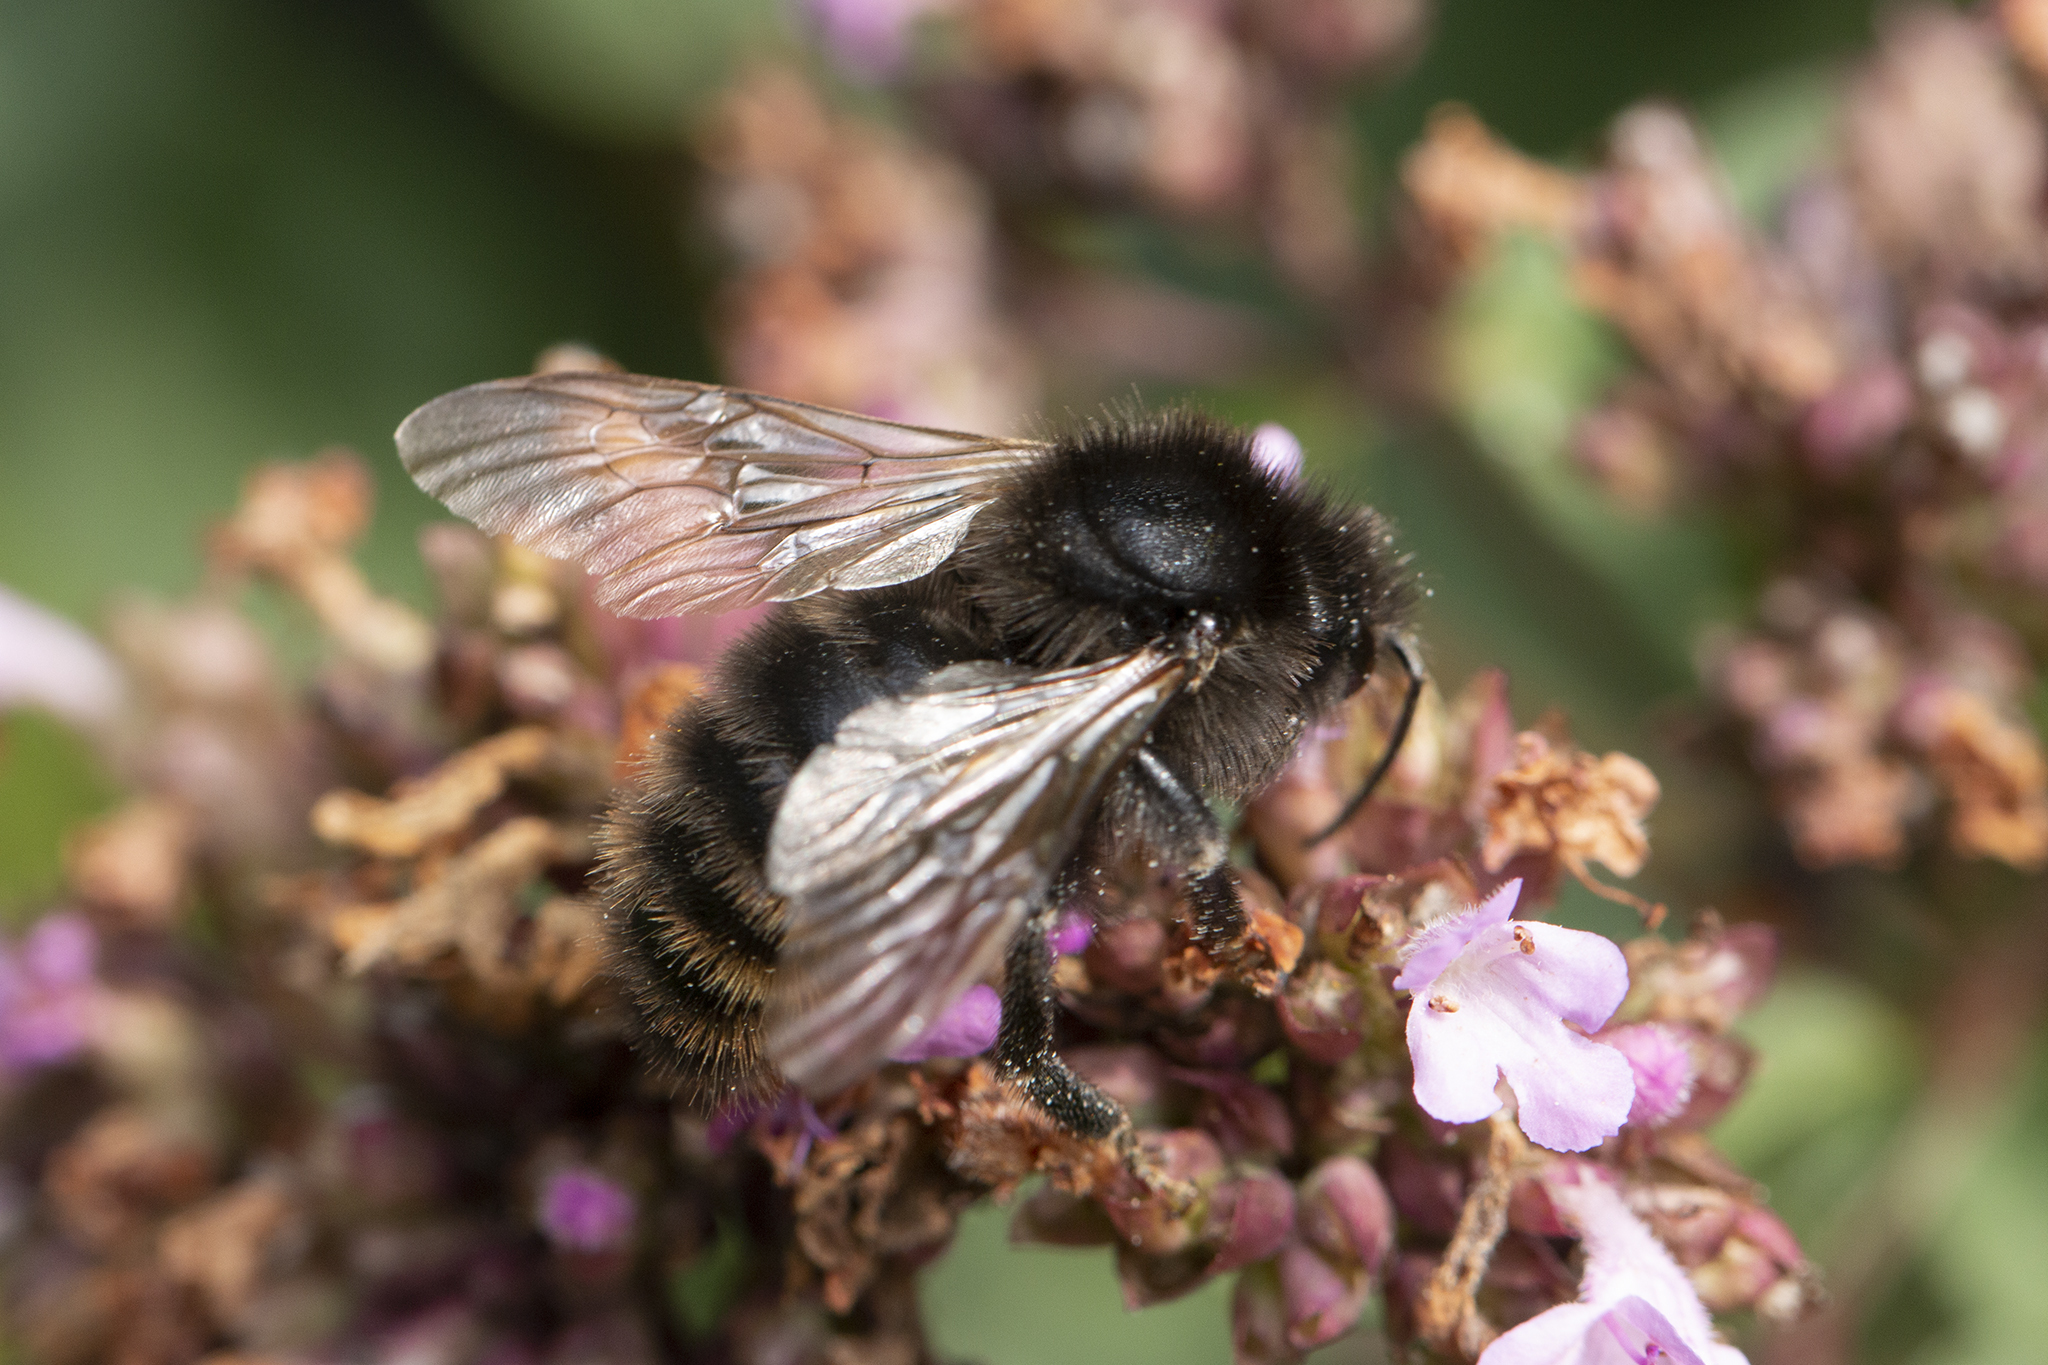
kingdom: Animalia
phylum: Arthropoda
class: Insecta
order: Hymenoptera
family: Apidae
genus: Bombus
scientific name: Bombus campestris
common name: Field cuckoo-bee
